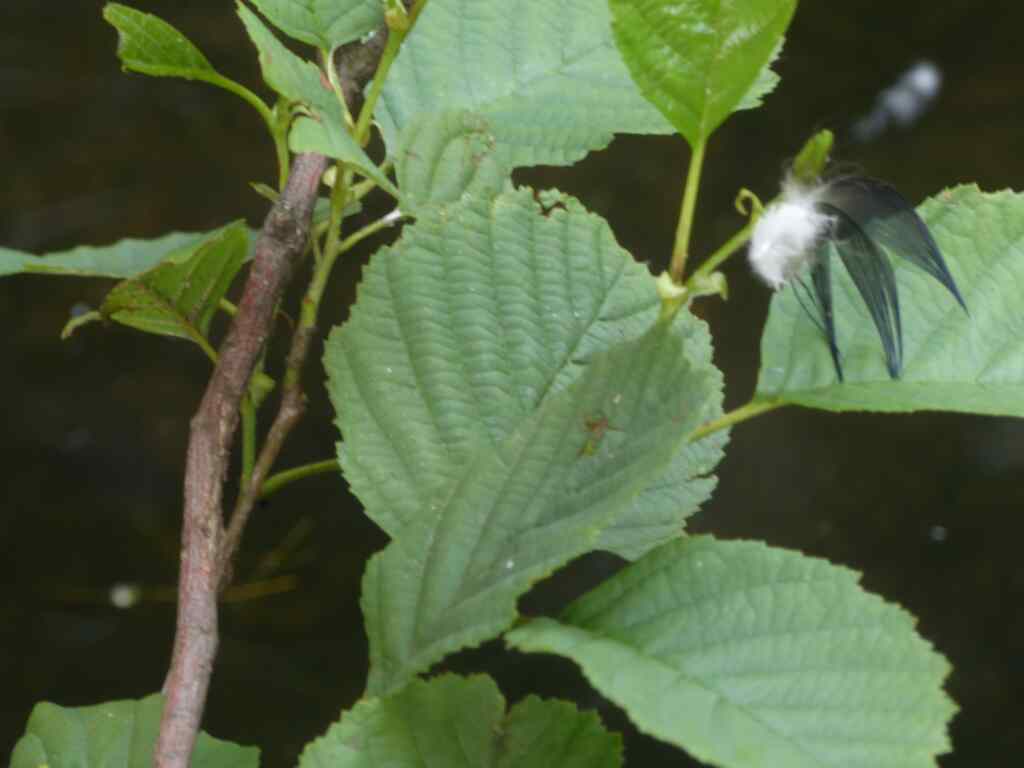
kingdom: Plantae
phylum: Tracheophyta
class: Magnoliopsida
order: Fagales
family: Betulaceae
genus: Alnus
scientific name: Alnus glutinosa
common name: Black alder
